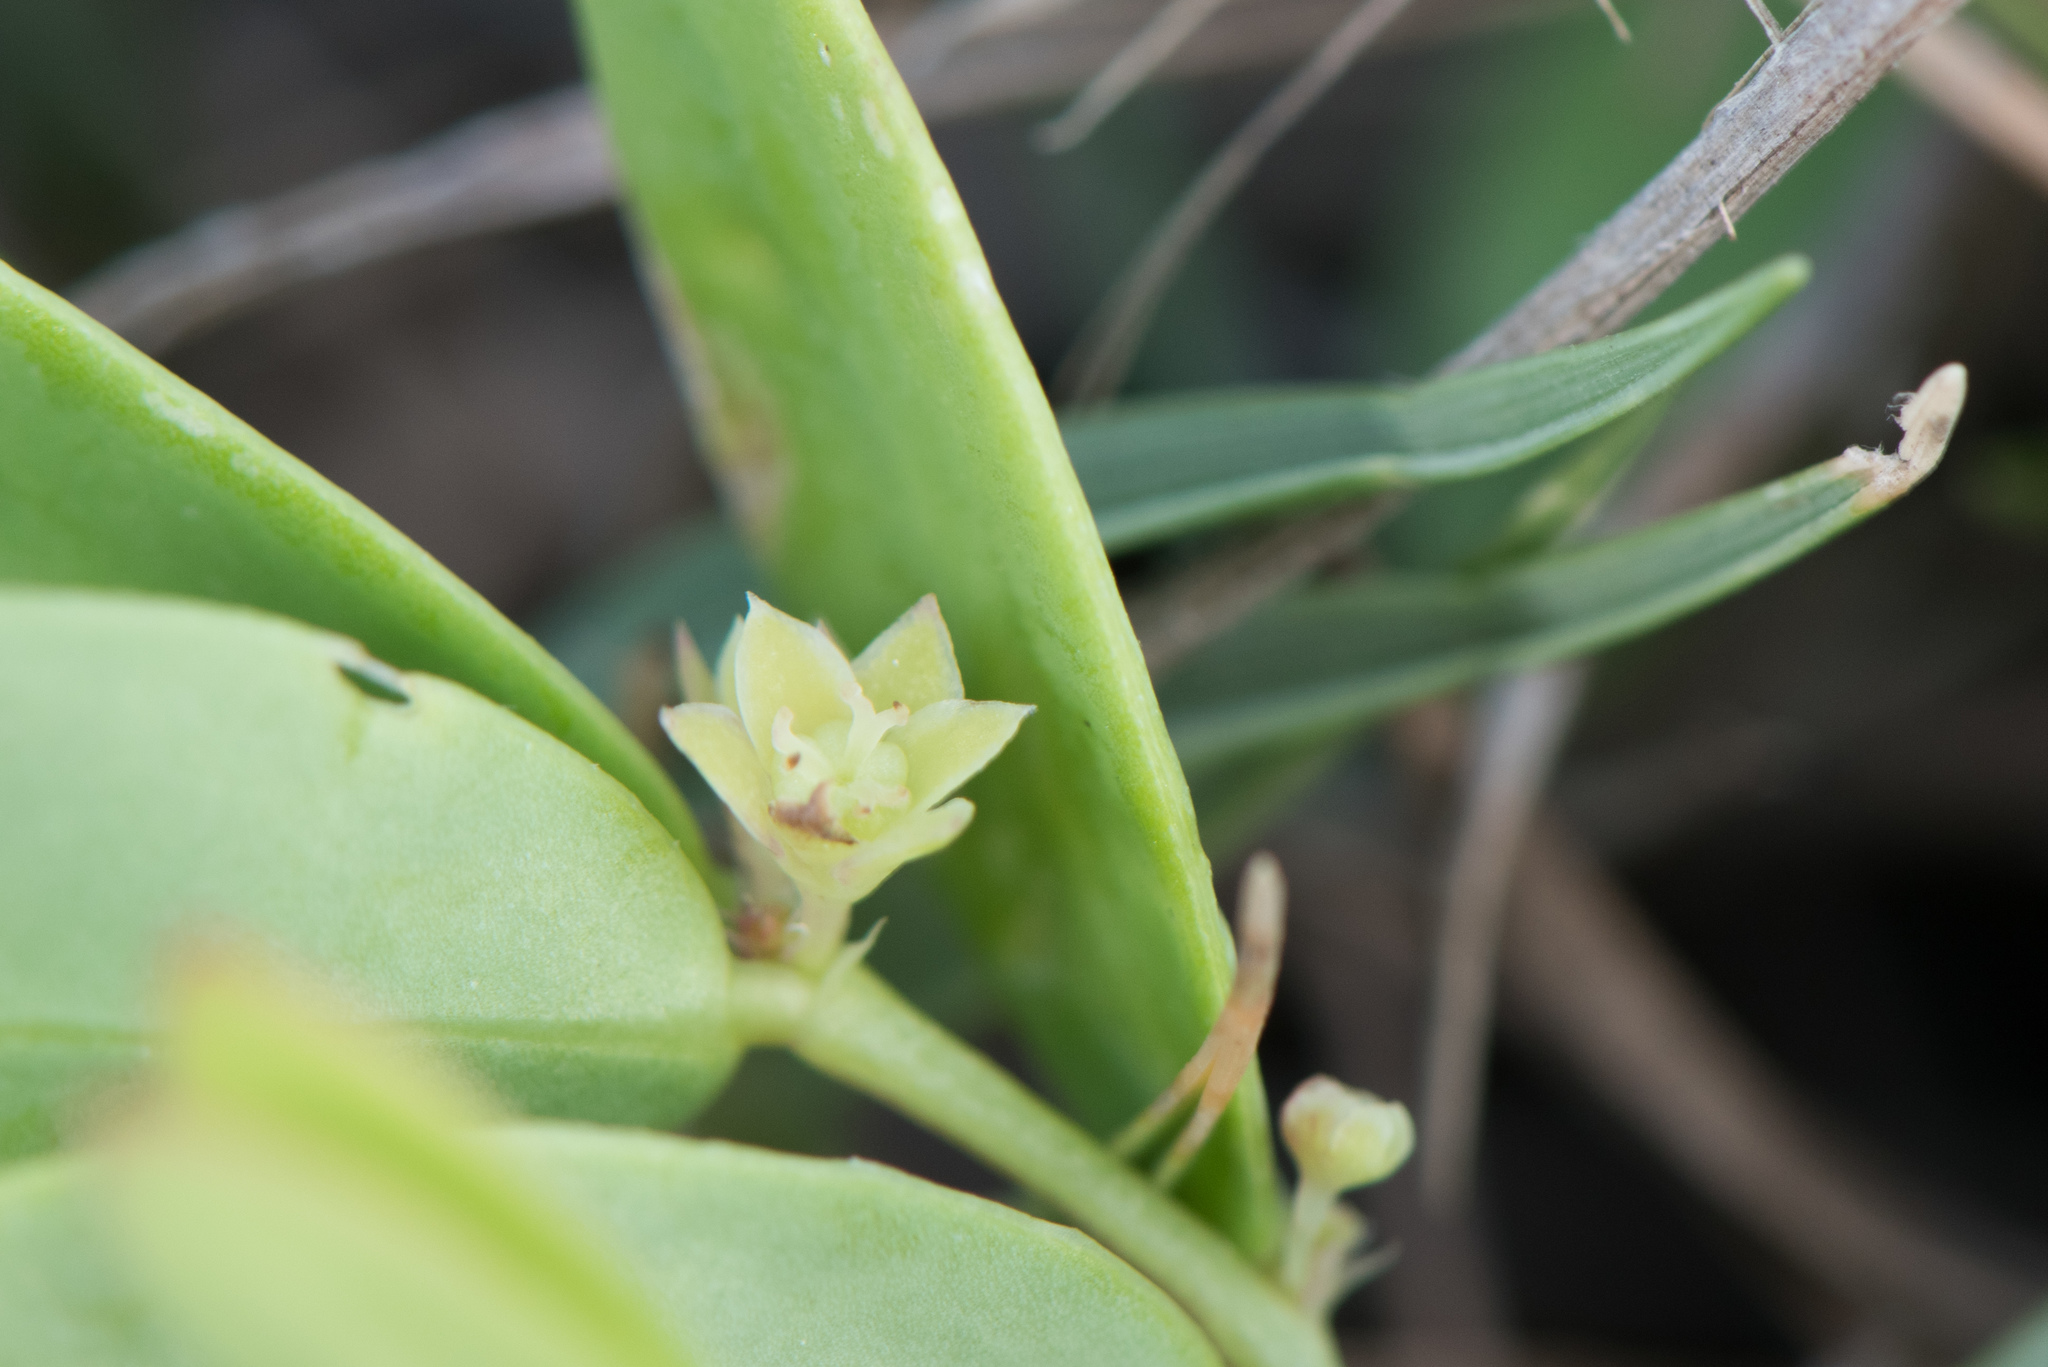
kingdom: Plantae
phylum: Tracheophyta
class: Magnoliopsida
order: Malpighiales
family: Phyllanthaceae
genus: Synostemon
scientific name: Synostemon bacciformis
